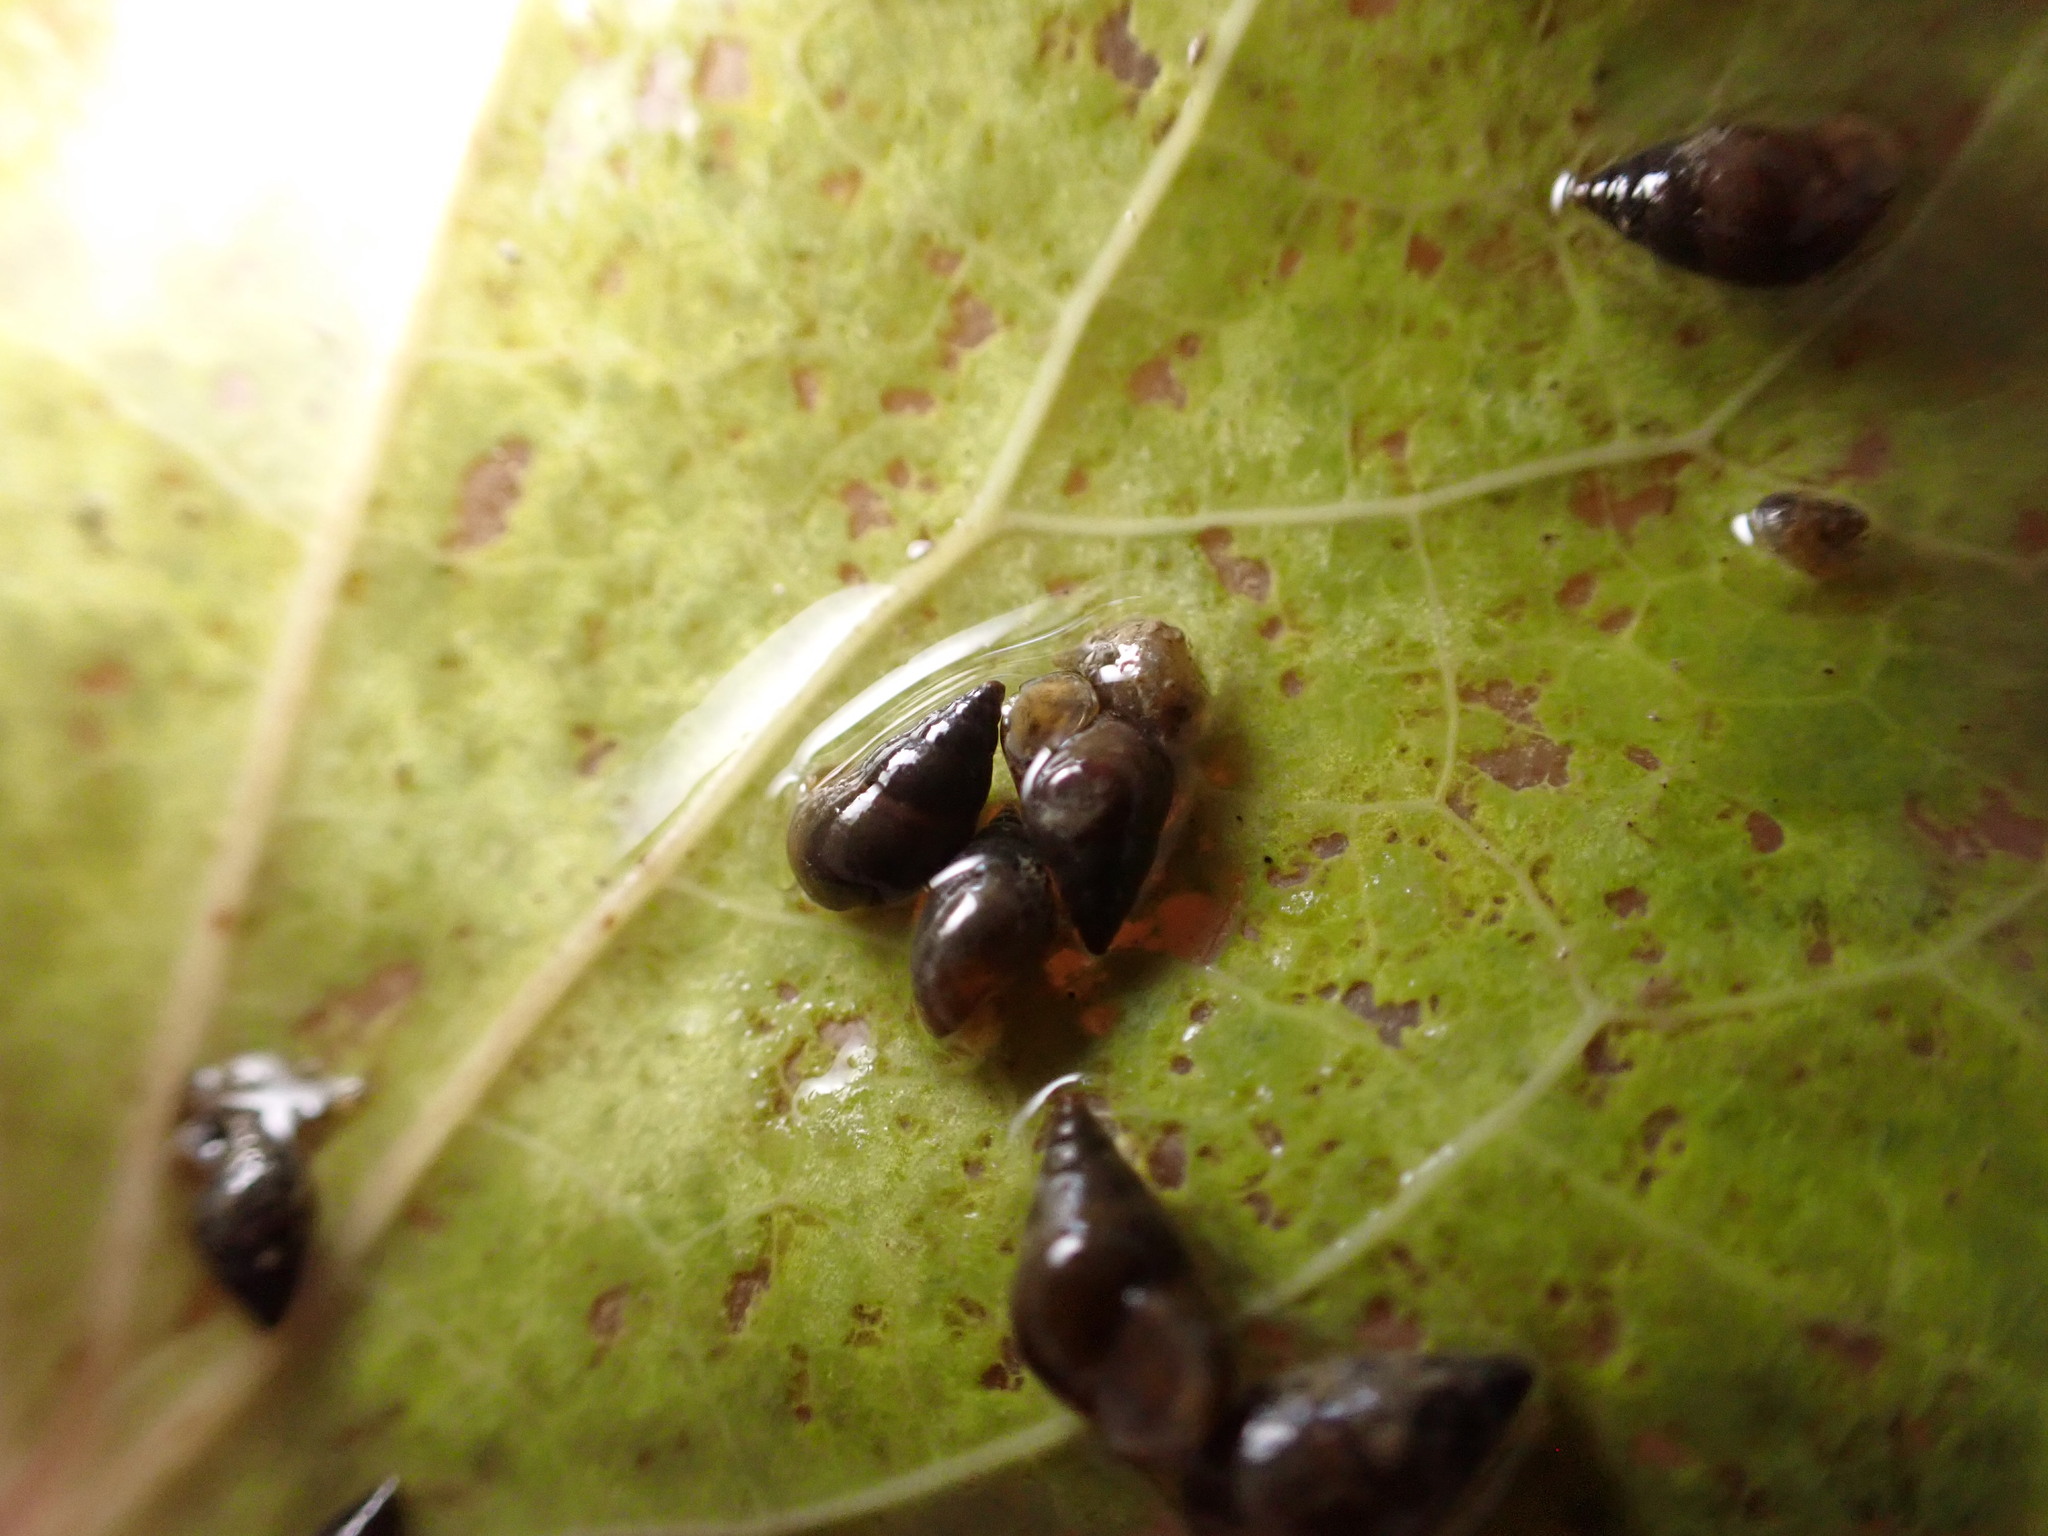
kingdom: Animalia
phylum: Mollusca
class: Gastropoda
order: Littorinimorpha
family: Tateidae
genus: Potamopyrgus
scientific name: Potamopyrgus antipodarum
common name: Jenkins' spire snail
